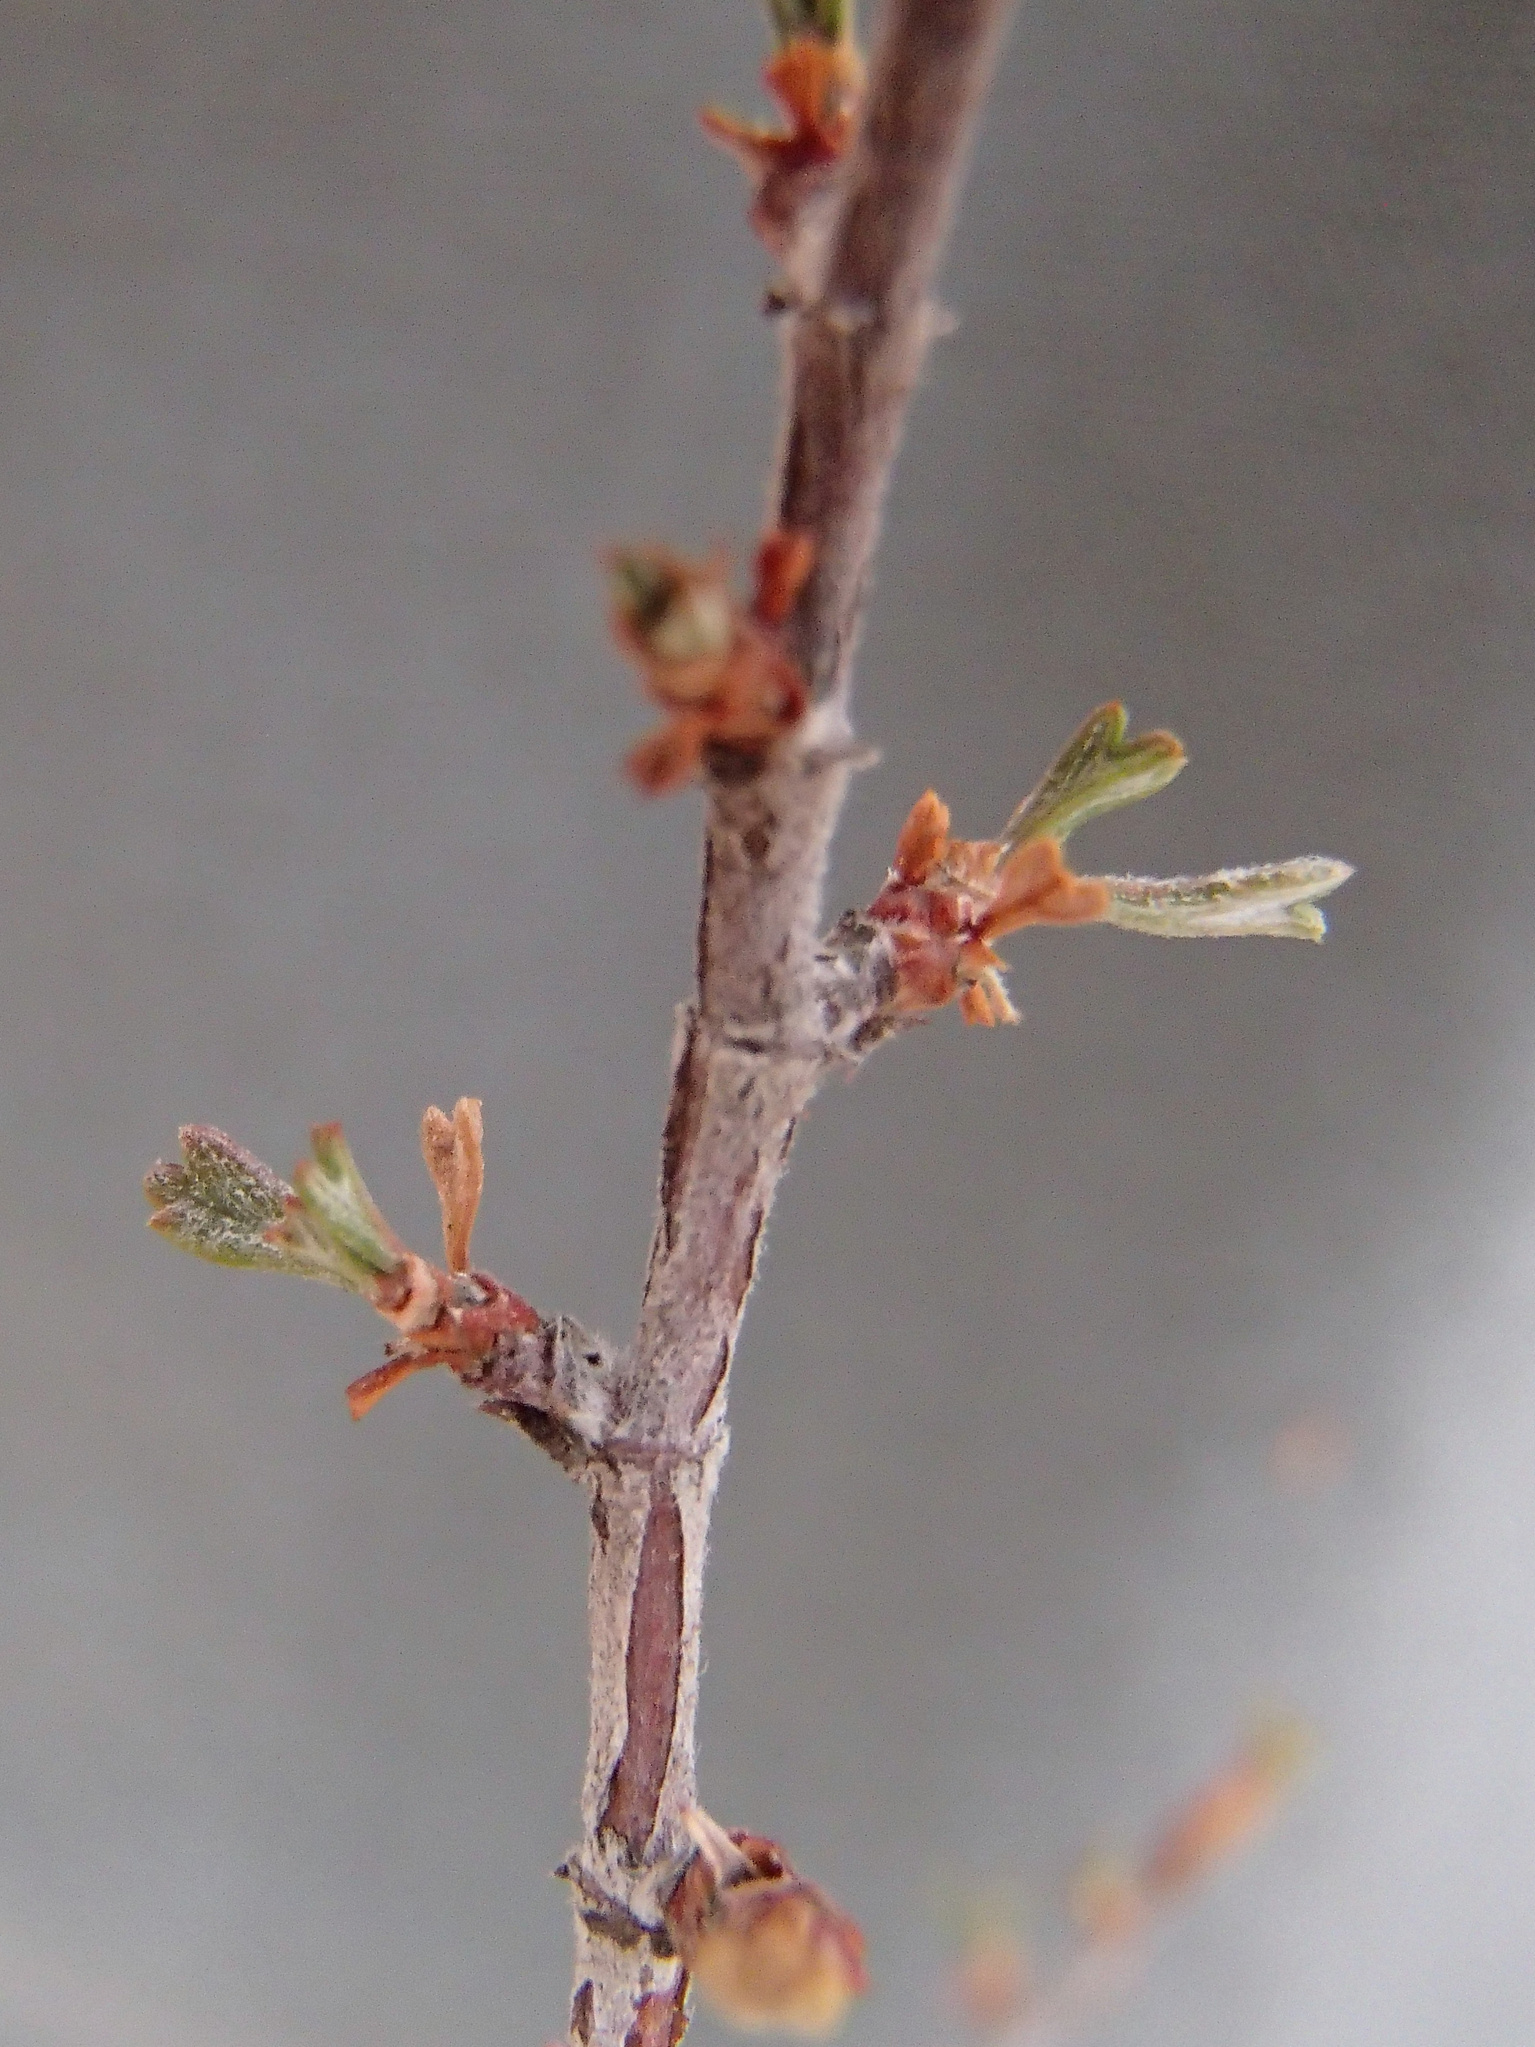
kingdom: Plantae
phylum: Tracheophyta
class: Magnoliopsida
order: Rosales
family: Rosaceae
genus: Purshia
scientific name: Purshia tridentata
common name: Antelope bitterbrush
